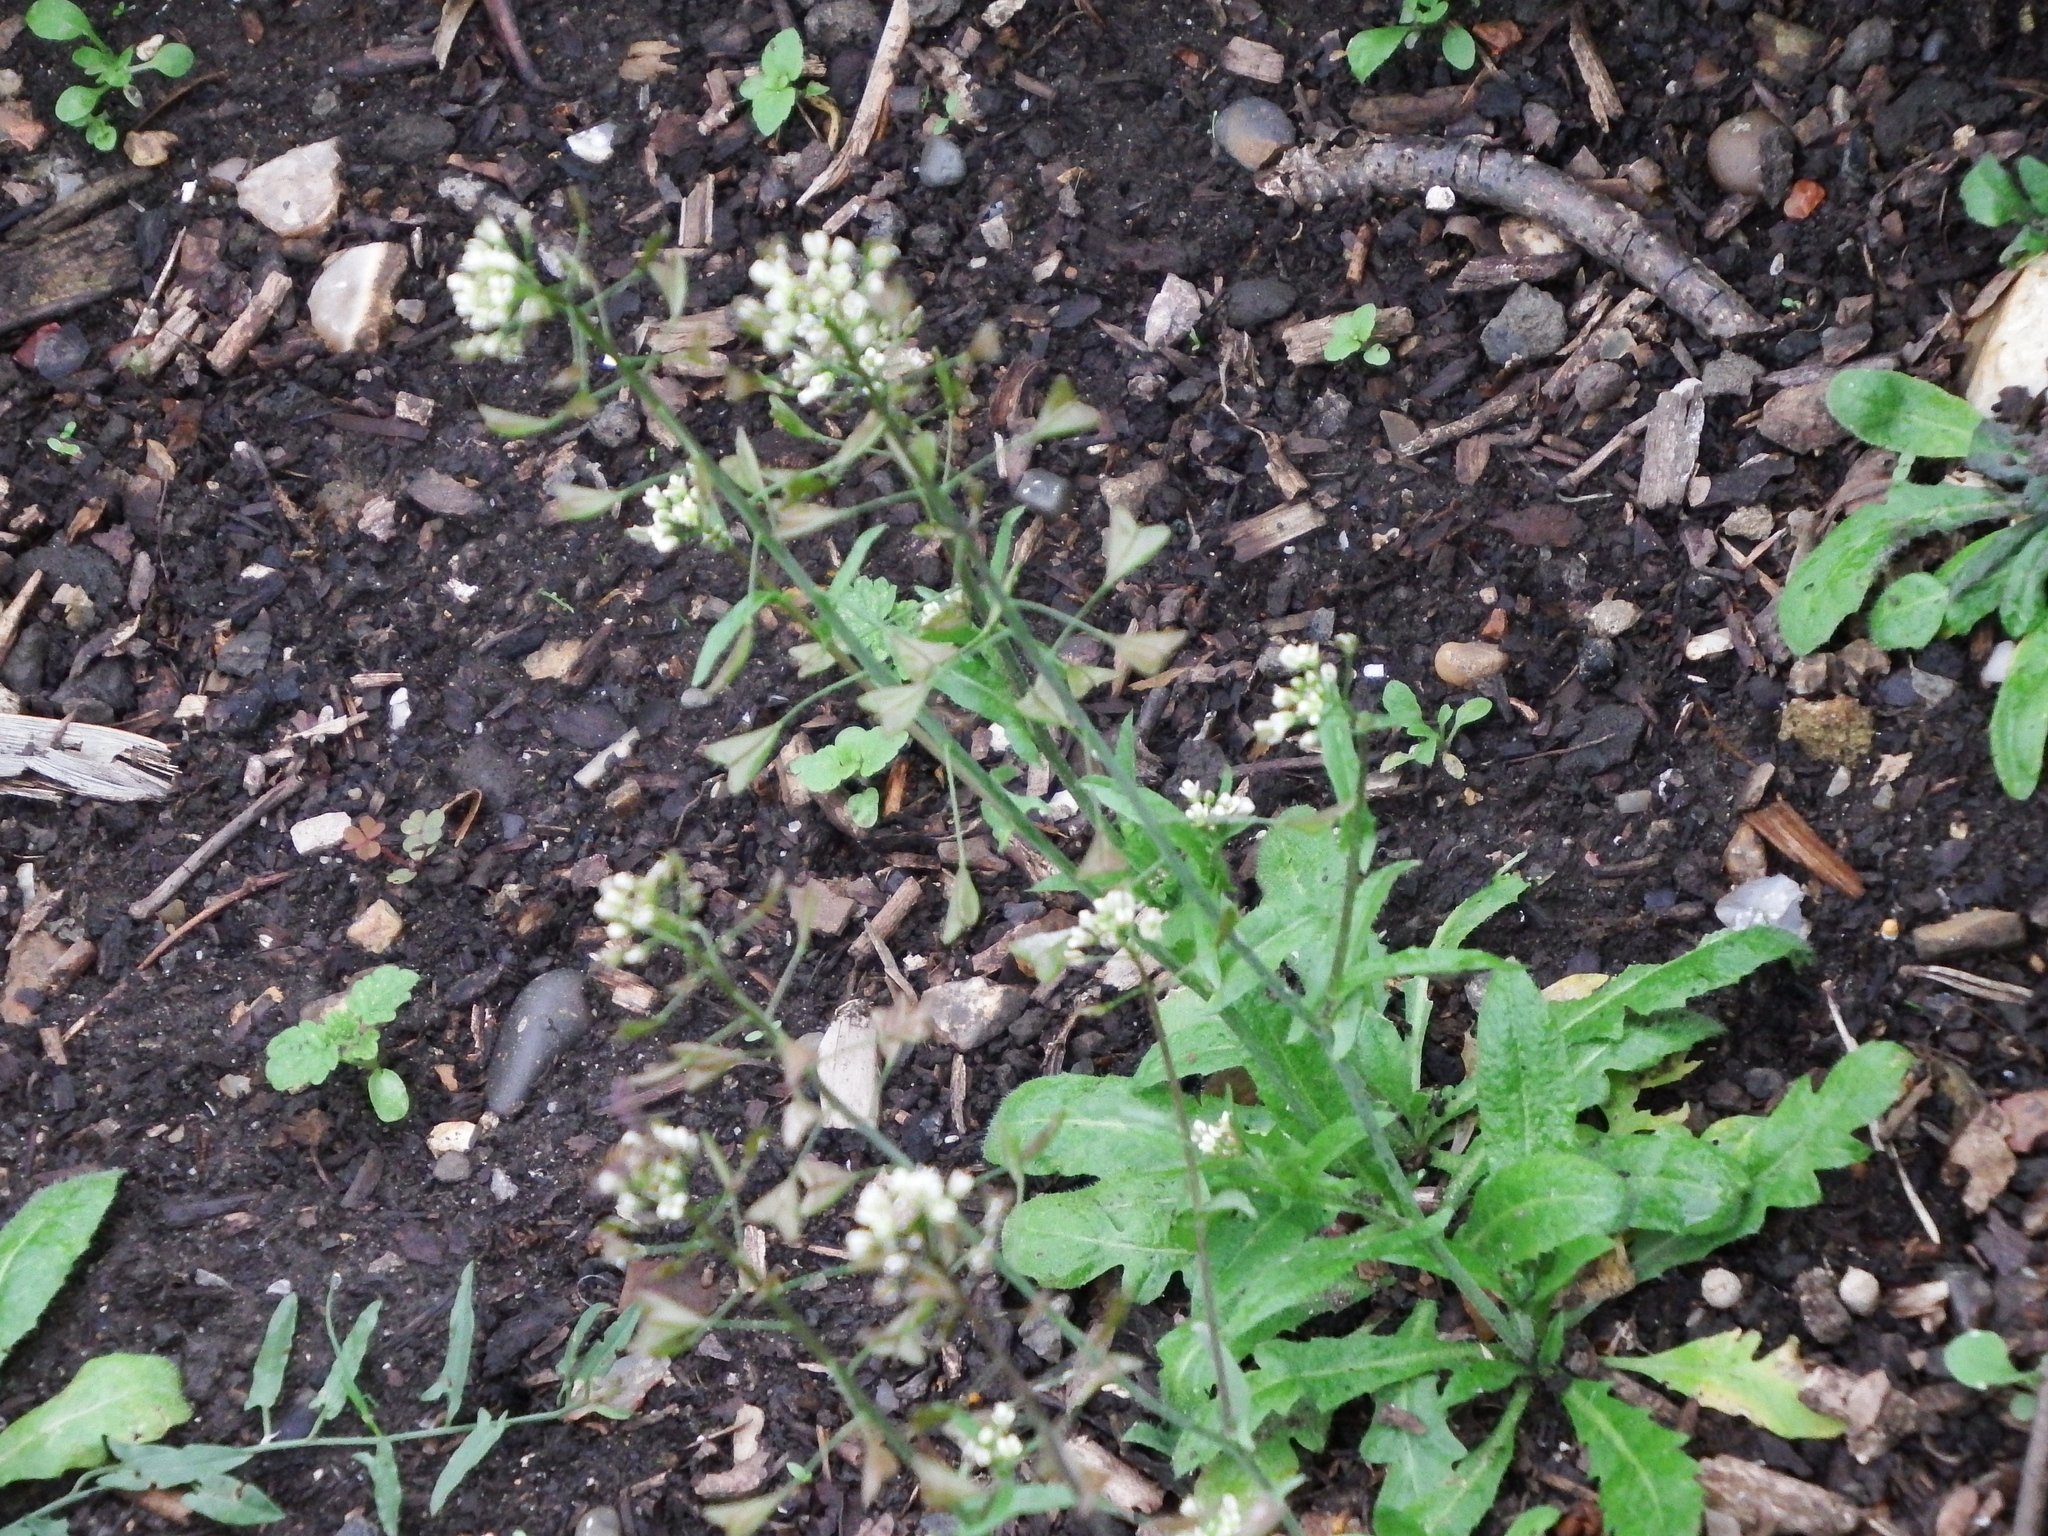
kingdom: Plantae
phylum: Tracheophyta
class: Magnoliopsida
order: Brassicales
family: Brassicaceae
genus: Capsella
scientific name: Capsella bursa-pastoris
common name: Shepherd's purse
